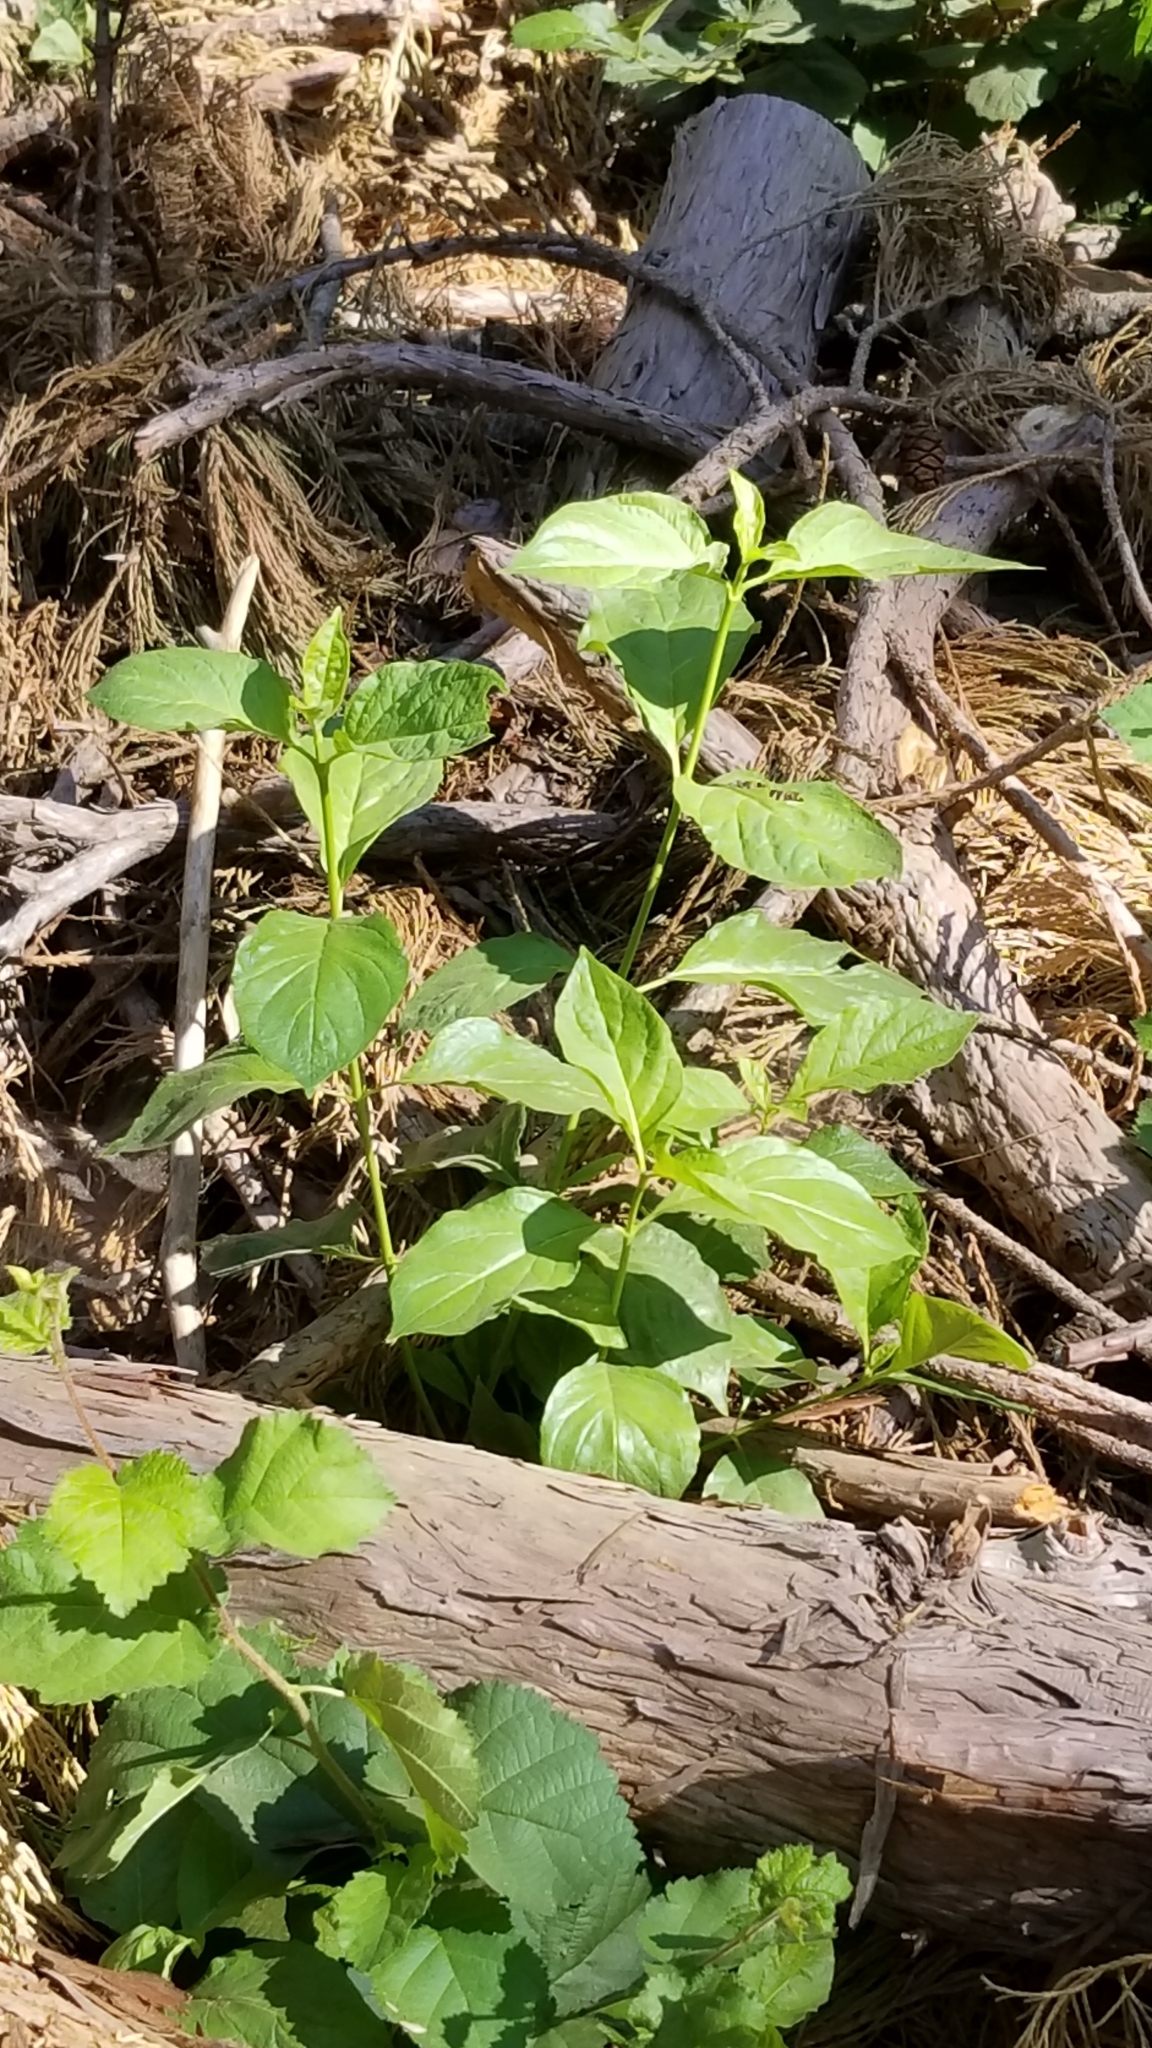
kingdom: Plantae
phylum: Tracheophyta
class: Magnoliopsida
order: Cornales
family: Cornaceae
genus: Cornus
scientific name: Cornus nuttallii
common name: Pacific dogwood
